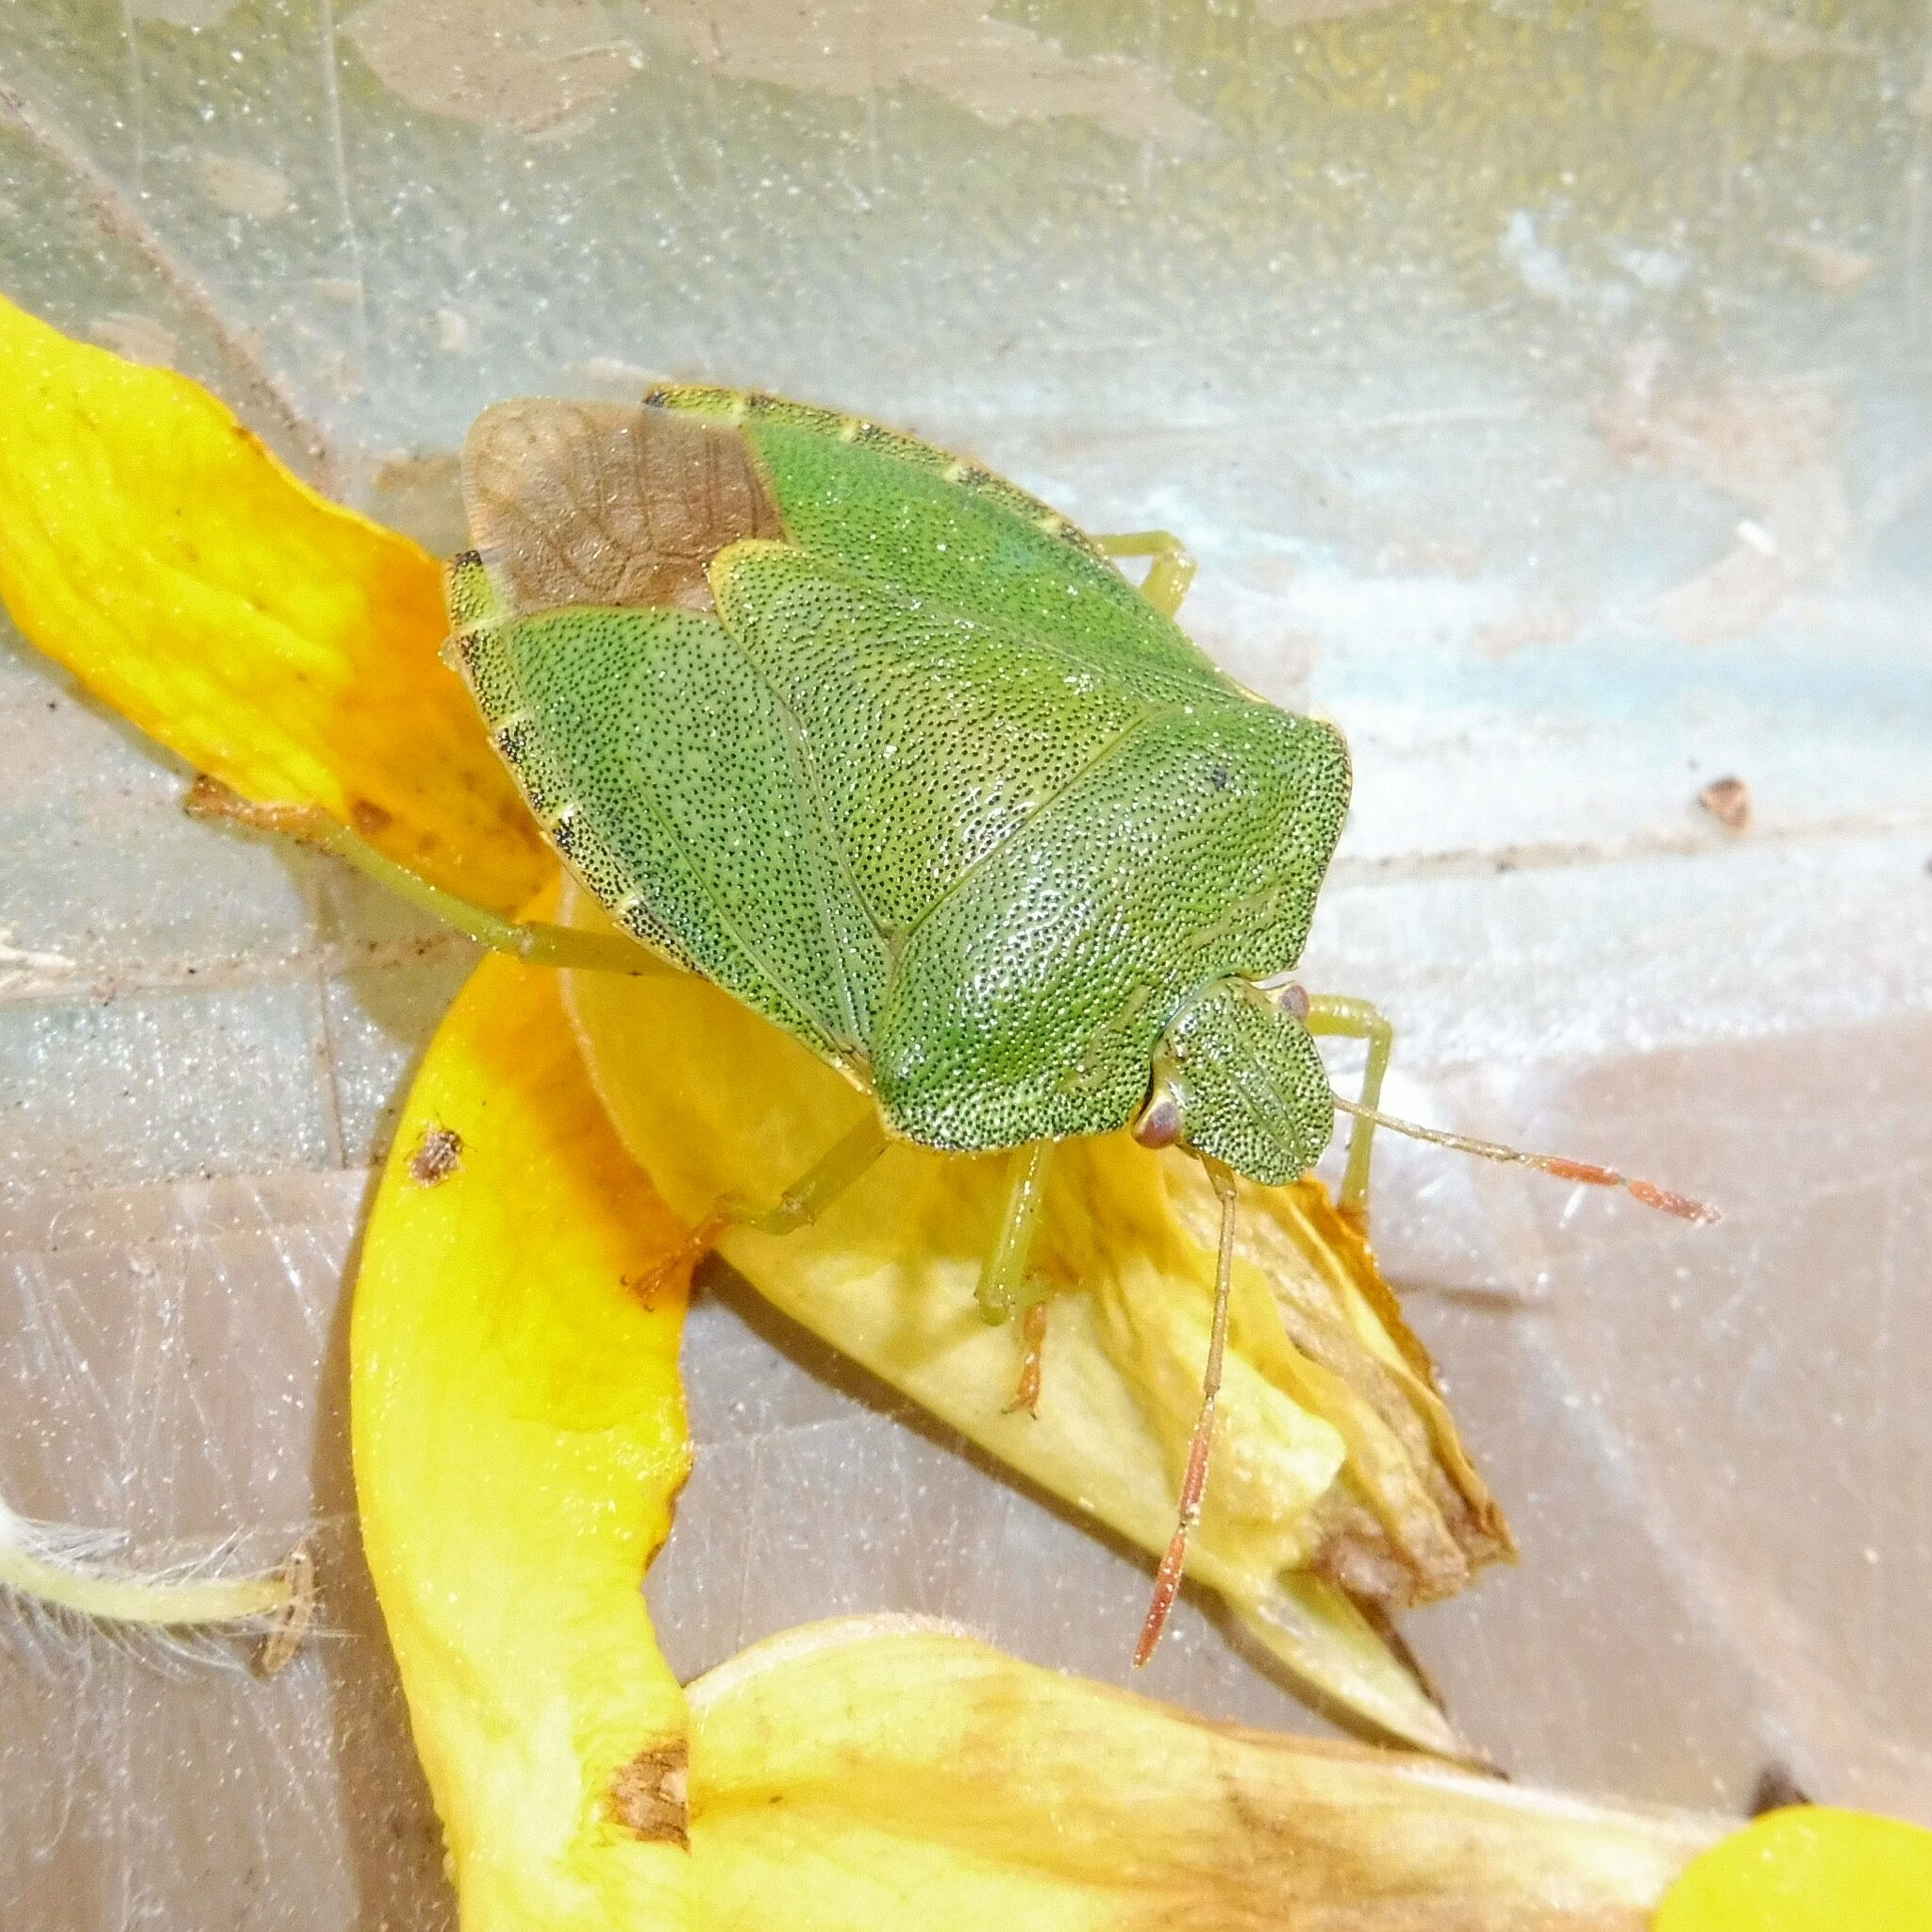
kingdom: Animalia
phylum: Arthropoda
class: Insecta
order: Hemiptera
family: Pentatomidae
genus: Palomena
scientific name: Palomena prasina
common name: Green shieldbug
